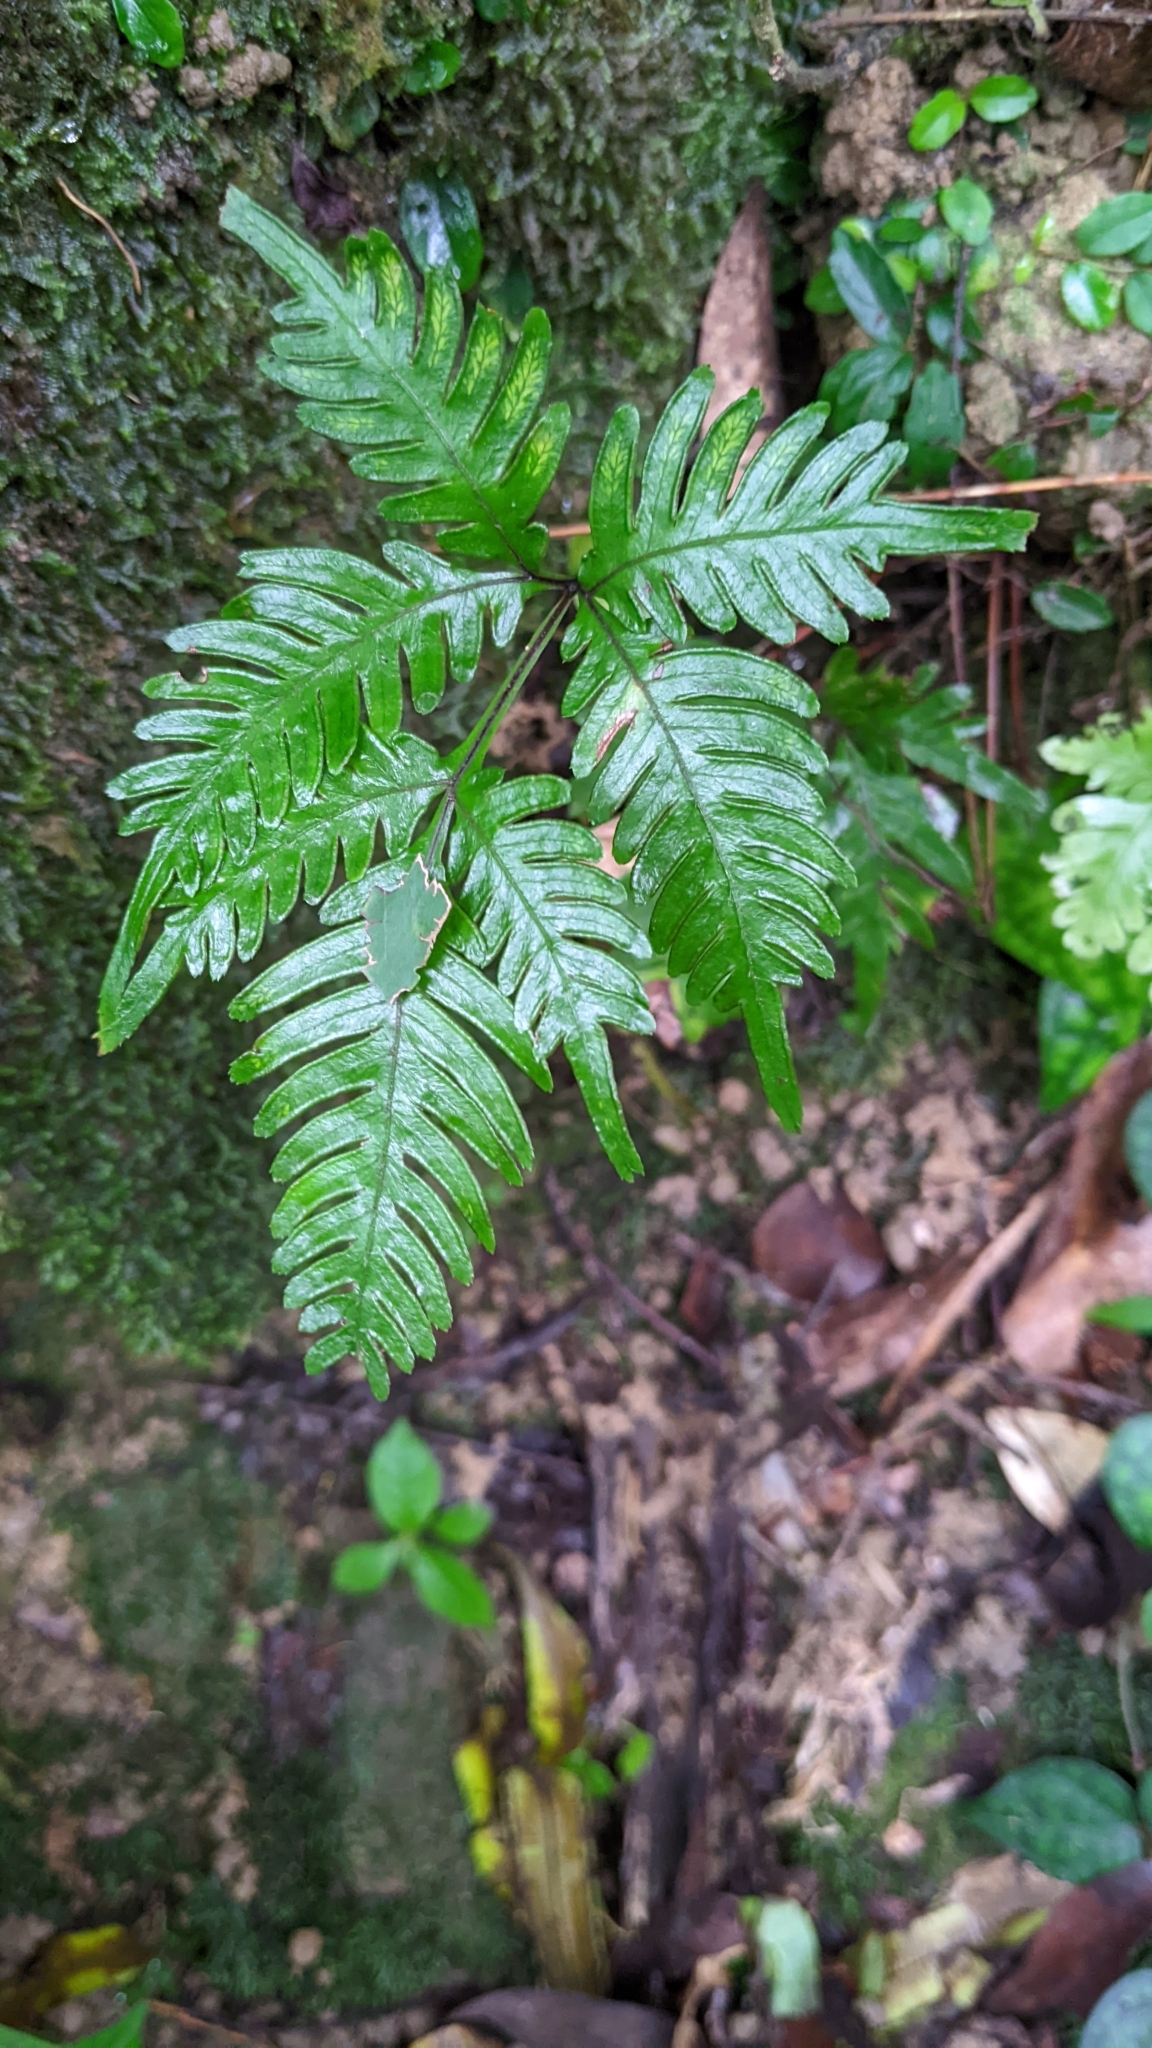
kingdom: Plantae
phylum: Tracheophyta
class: Polypodiopsida
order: Polypodiales
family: Pteridaceae
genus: Pteris
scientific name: Pteris grevilleana
